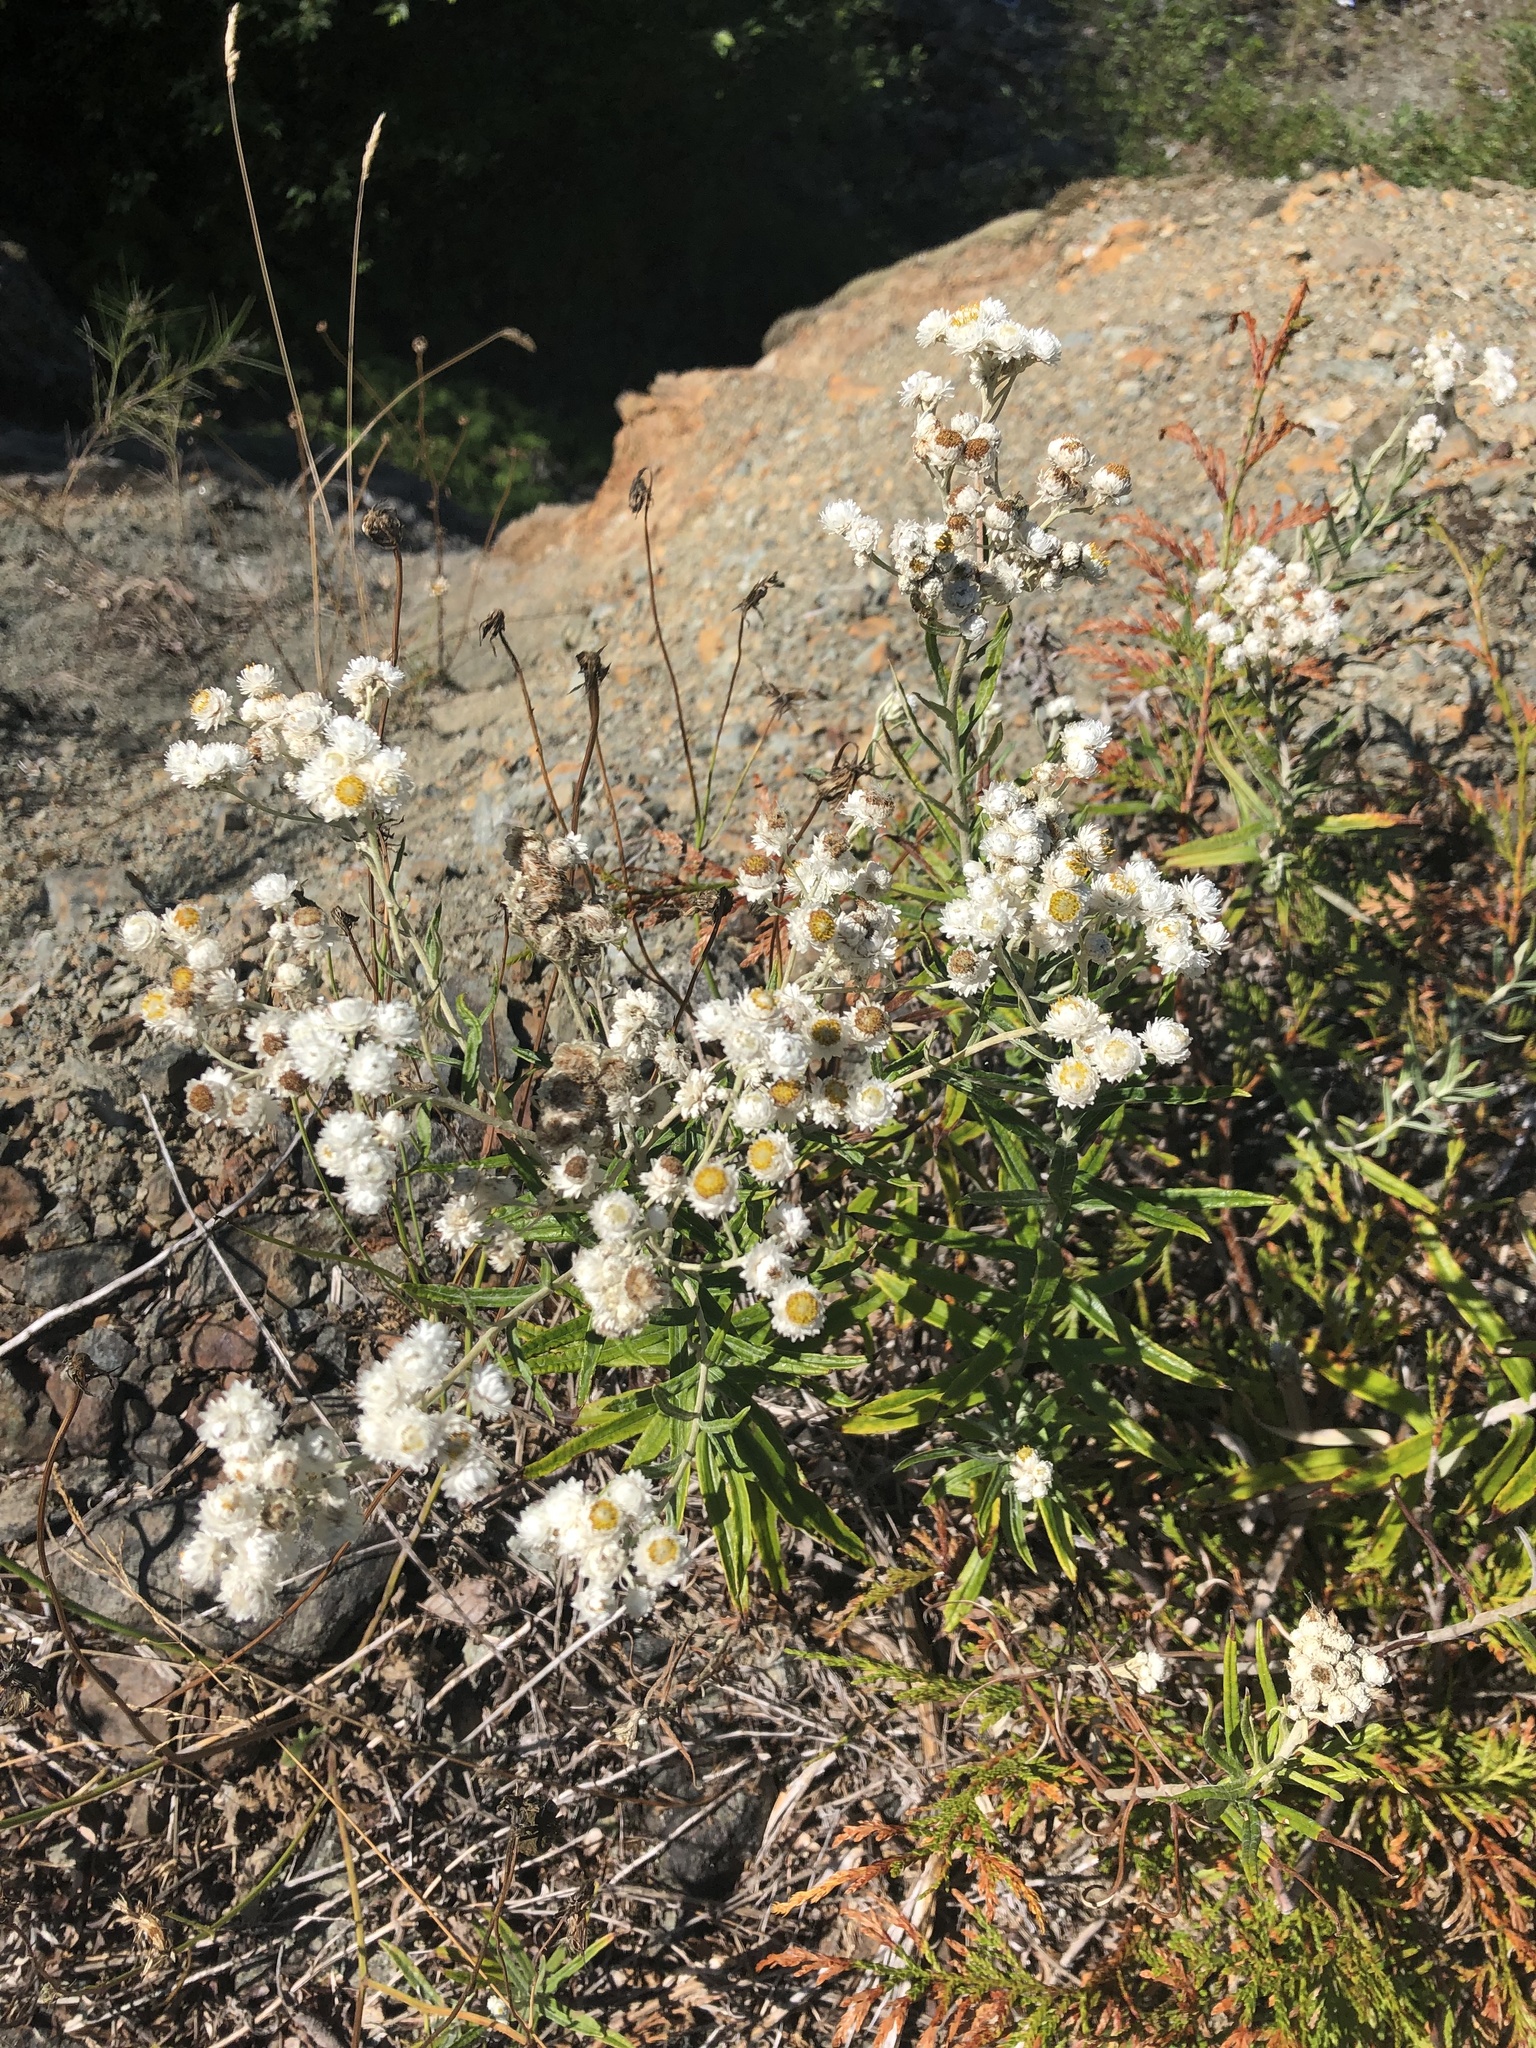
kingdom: Plantae
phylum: Tracheophyta
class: Magnoliopsida
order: Asterales
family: Asteraceae
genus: Anaphalis
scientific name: Anaphalis margaritacea
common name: Pearly everlasting
